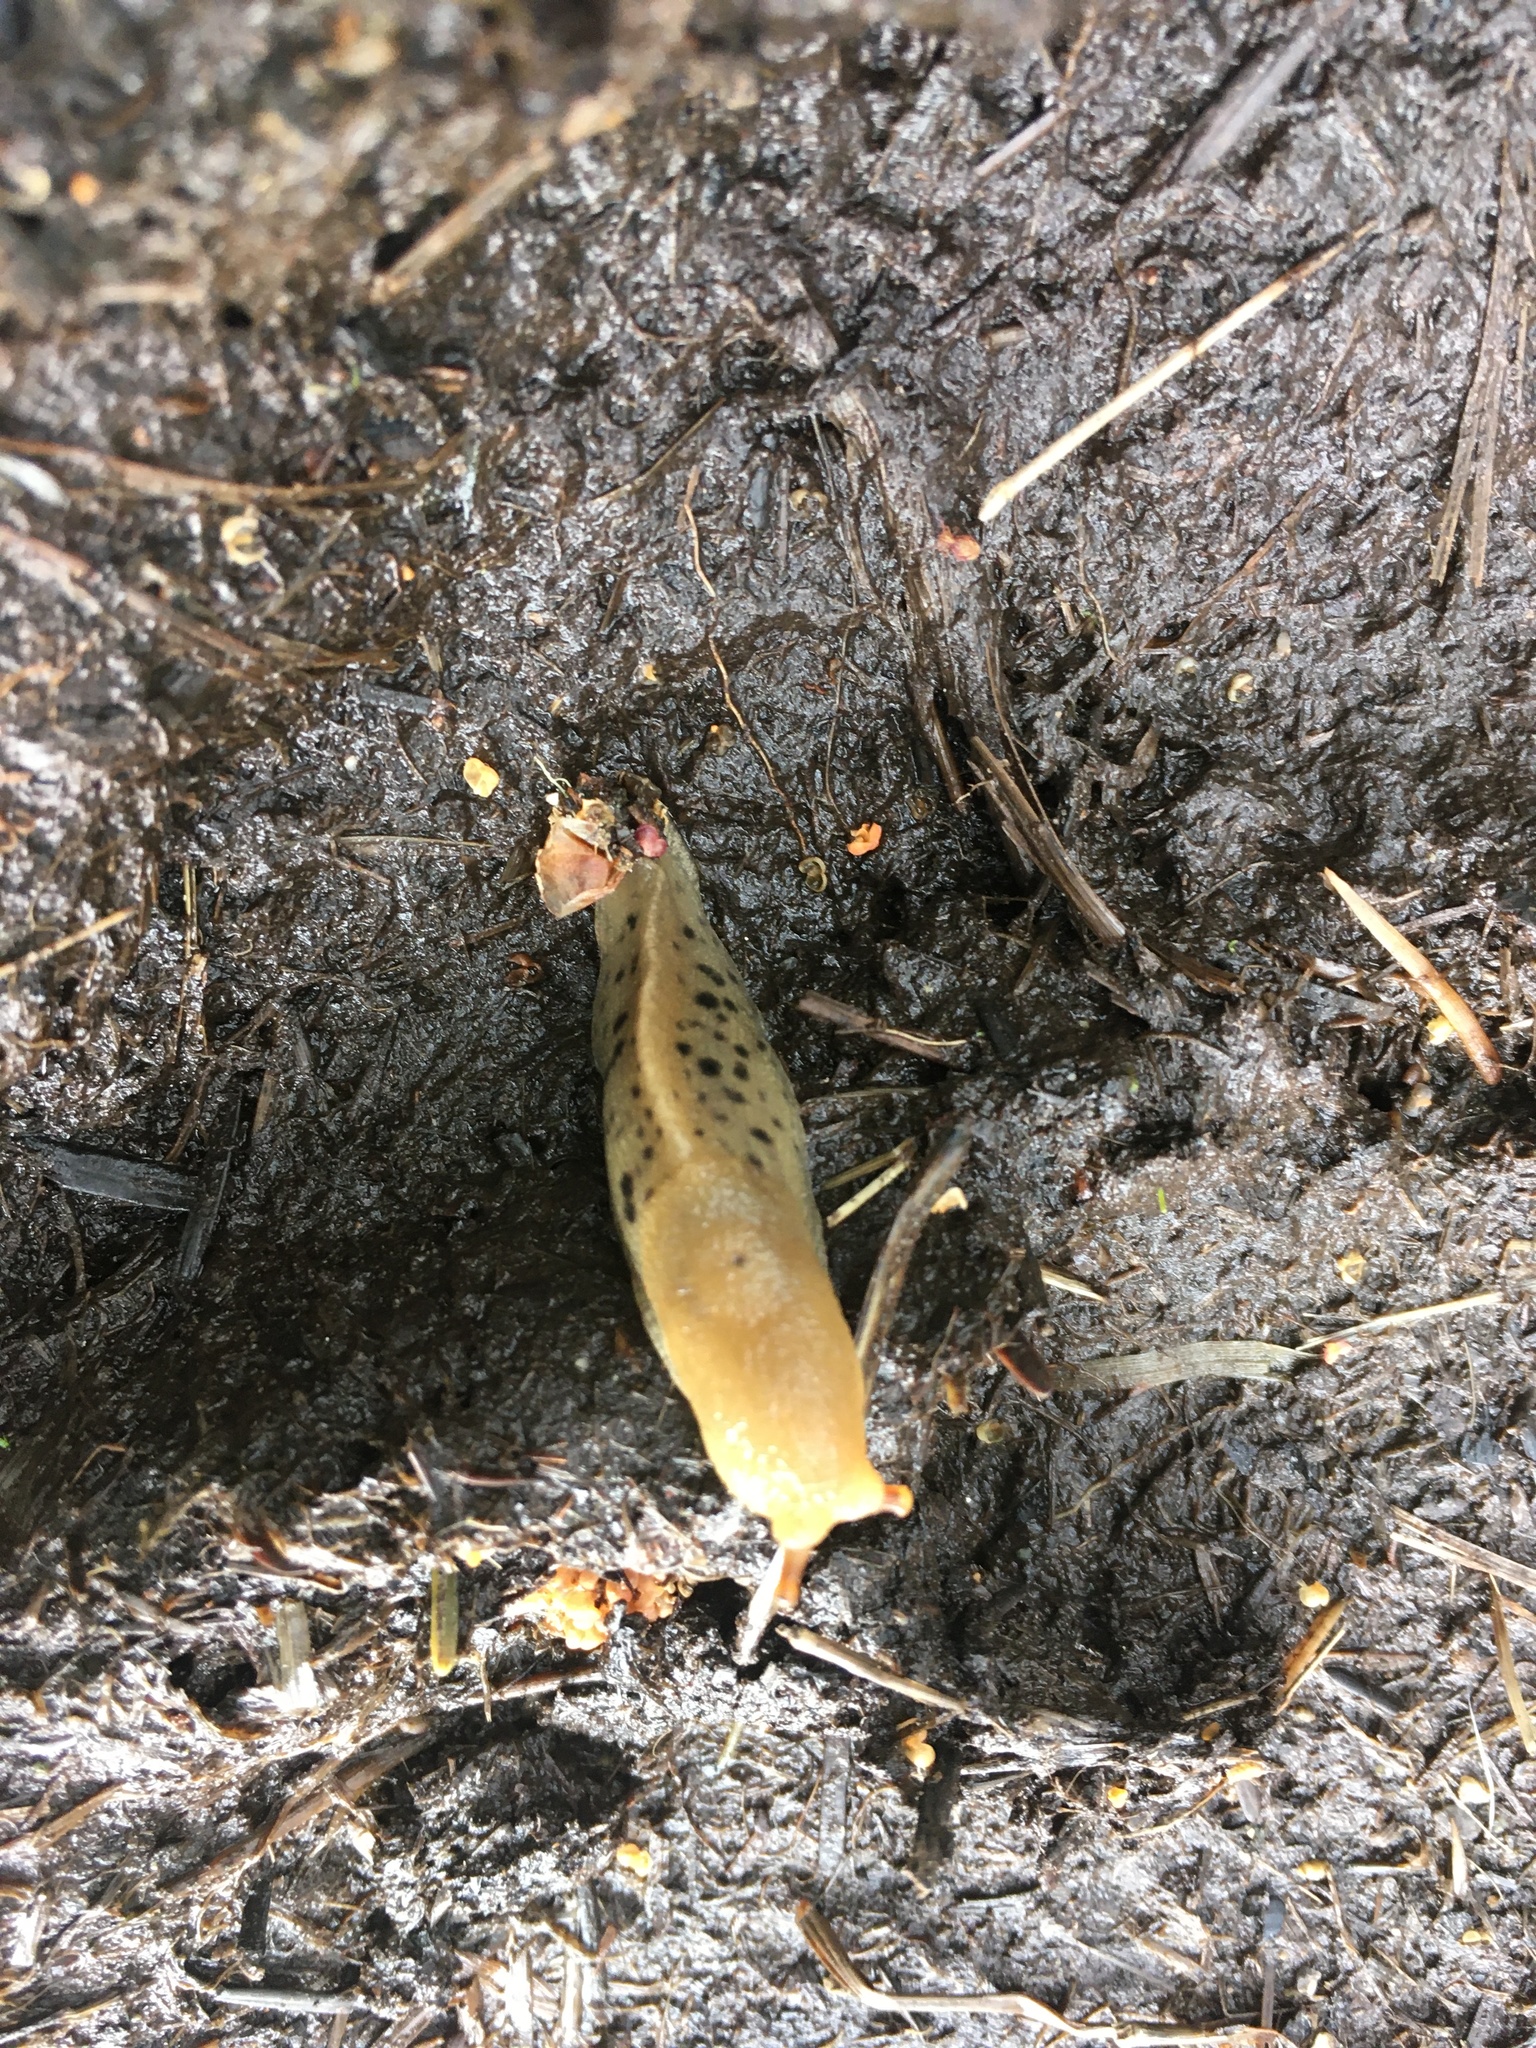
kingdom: Animalia
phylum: Mollusca
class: Gastropoda
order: Stylommatophora
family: Ariolimacidae
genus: Ariolimax
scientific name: Ariolimax columbianus
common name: Pacific banana slug
